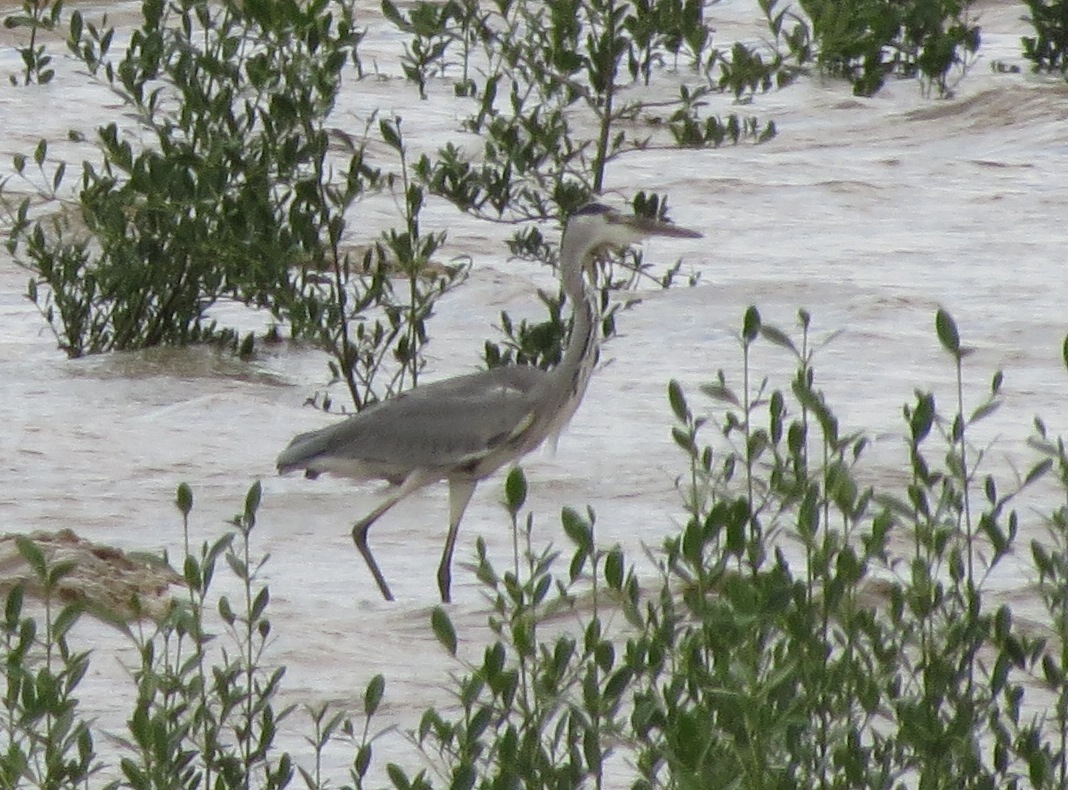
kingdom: Animalia
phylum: Chordata
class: Aves
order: Pelecaniformes
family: Ardeidae
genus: Ardea
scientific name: Ardea cinerea
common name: Grey heron
